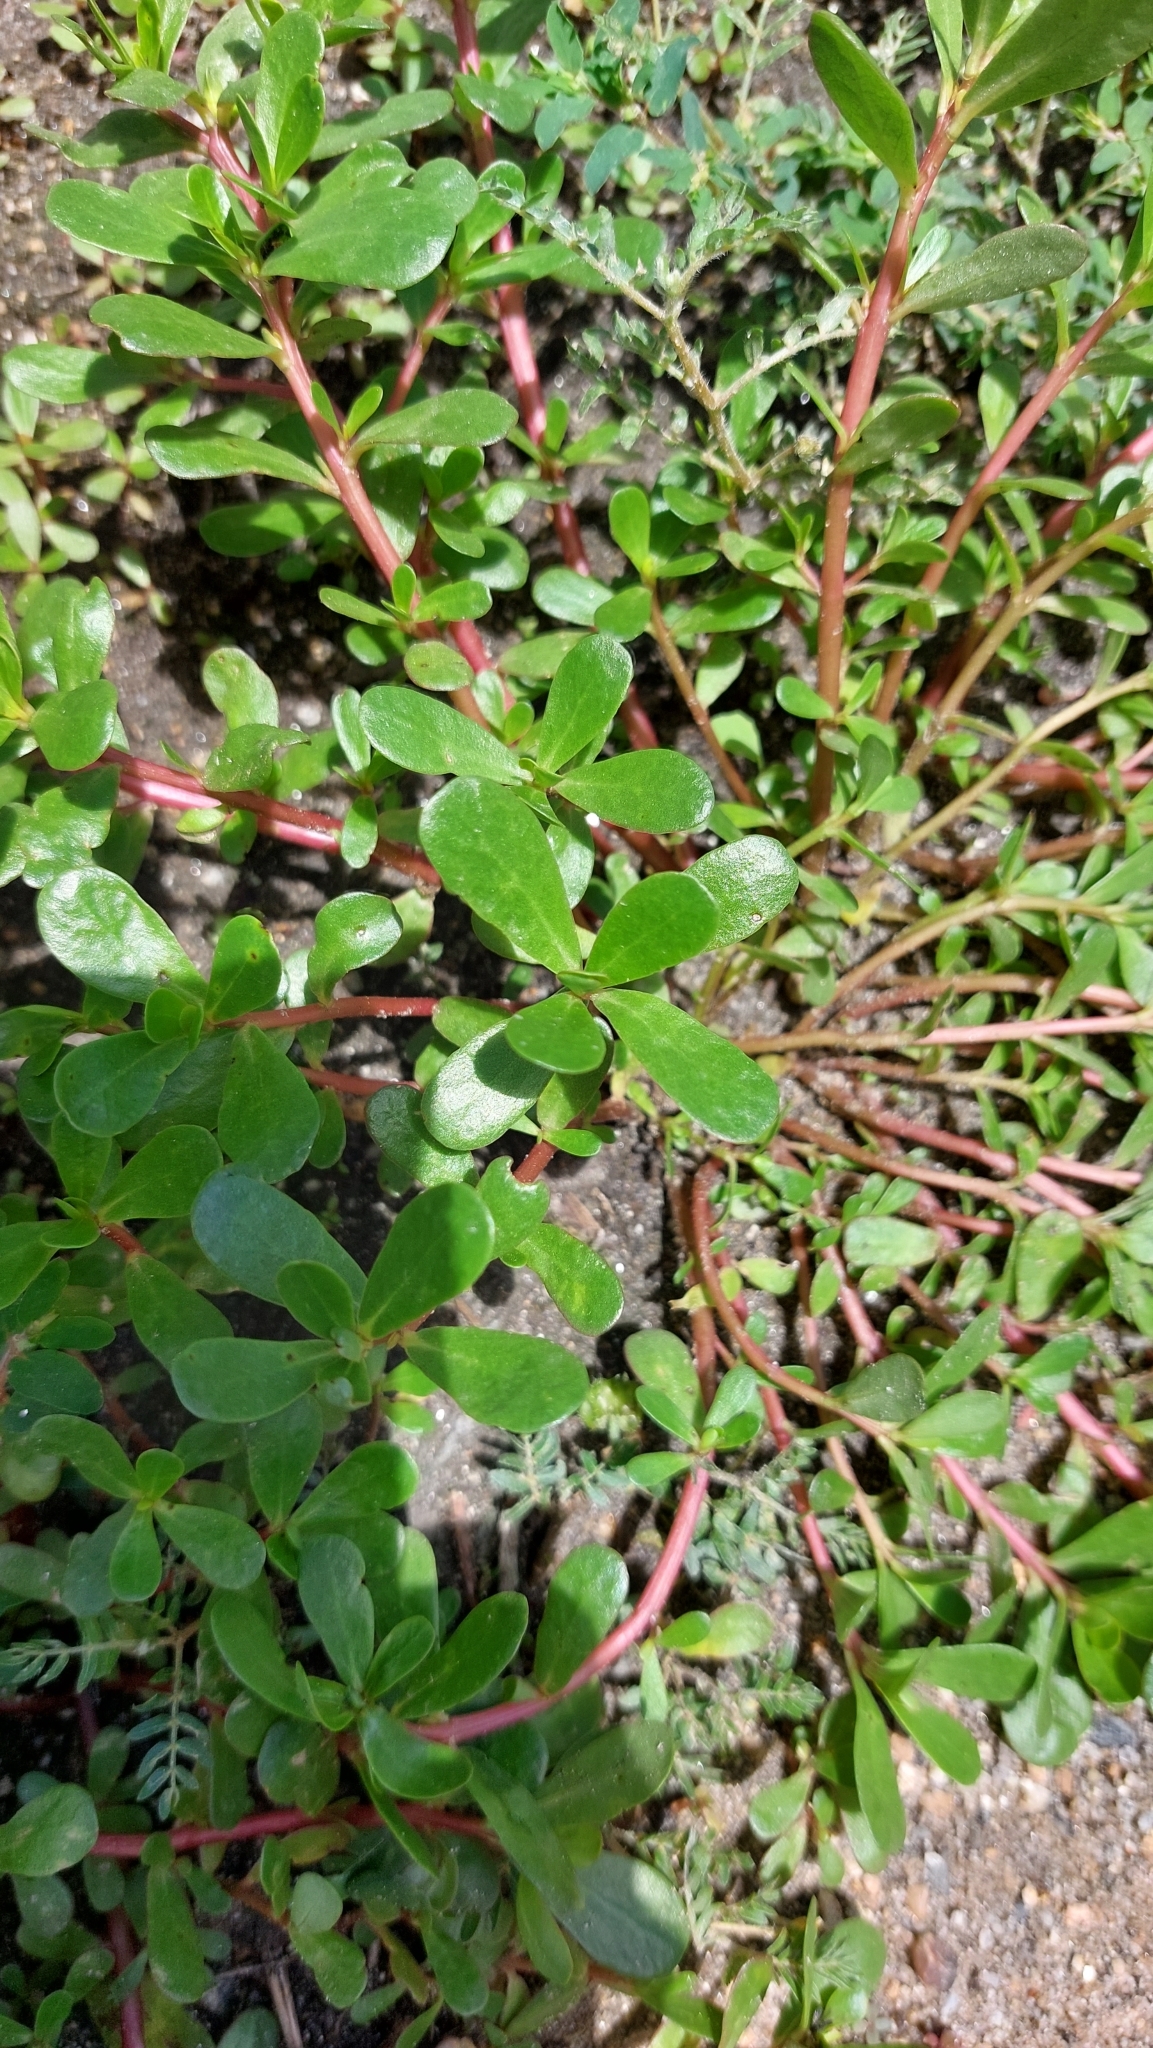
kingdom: Plantae
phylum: Tracheophyta
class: Magnoliopsida
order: Caryophyllales
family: Portulacaceae
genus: Portulaca
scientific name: Portulaca oleracea
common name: Common purslane
